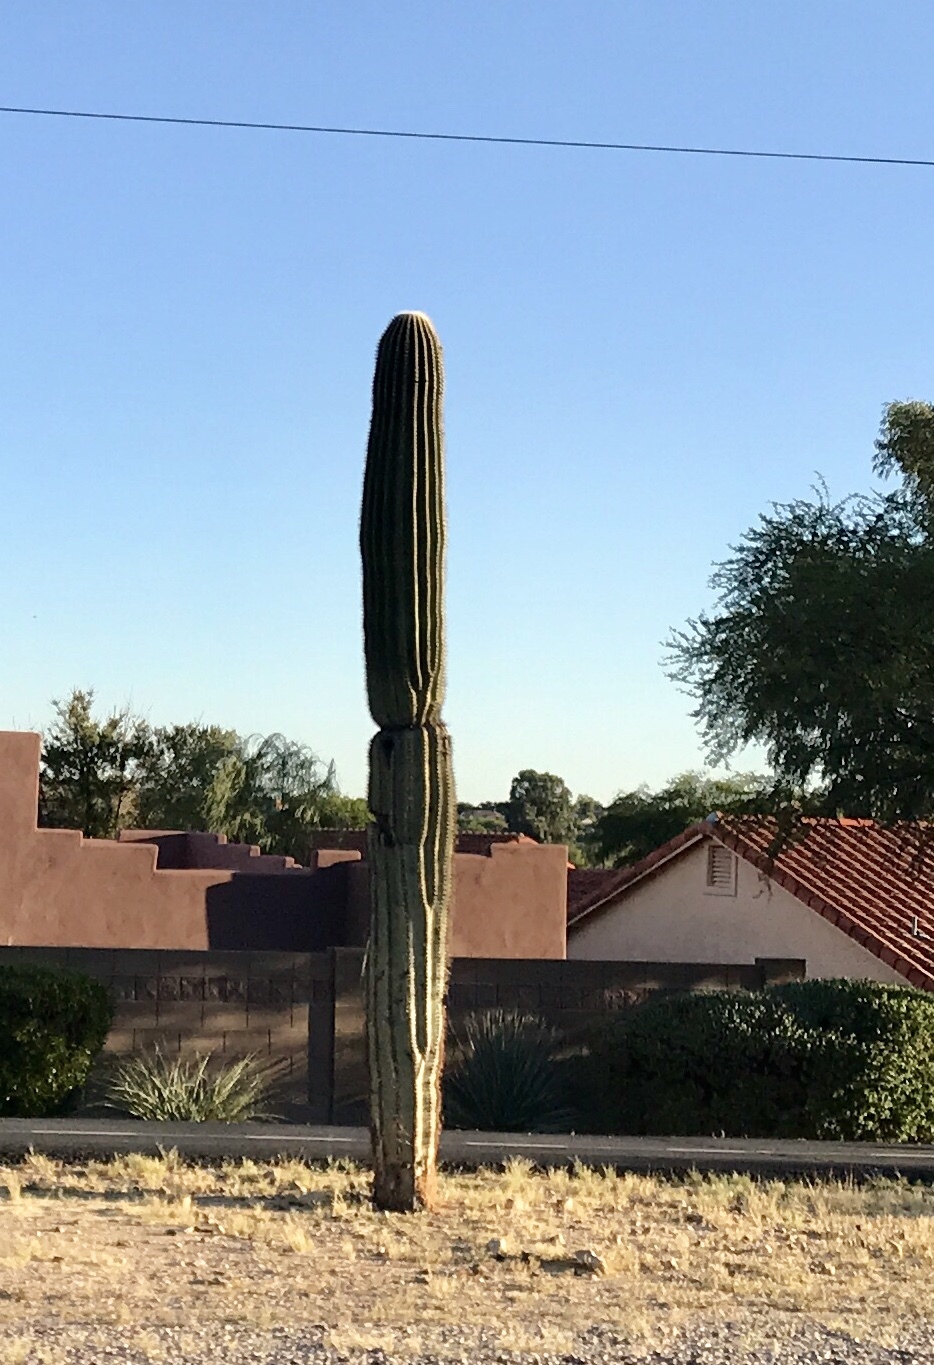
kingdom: Plantae
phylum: Tracheophyta
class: Magnoliopsida
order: Caryophyllales
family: Cactaceae
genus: Carnegiea
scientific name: Carnegiea gigantea
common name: Saguaro
